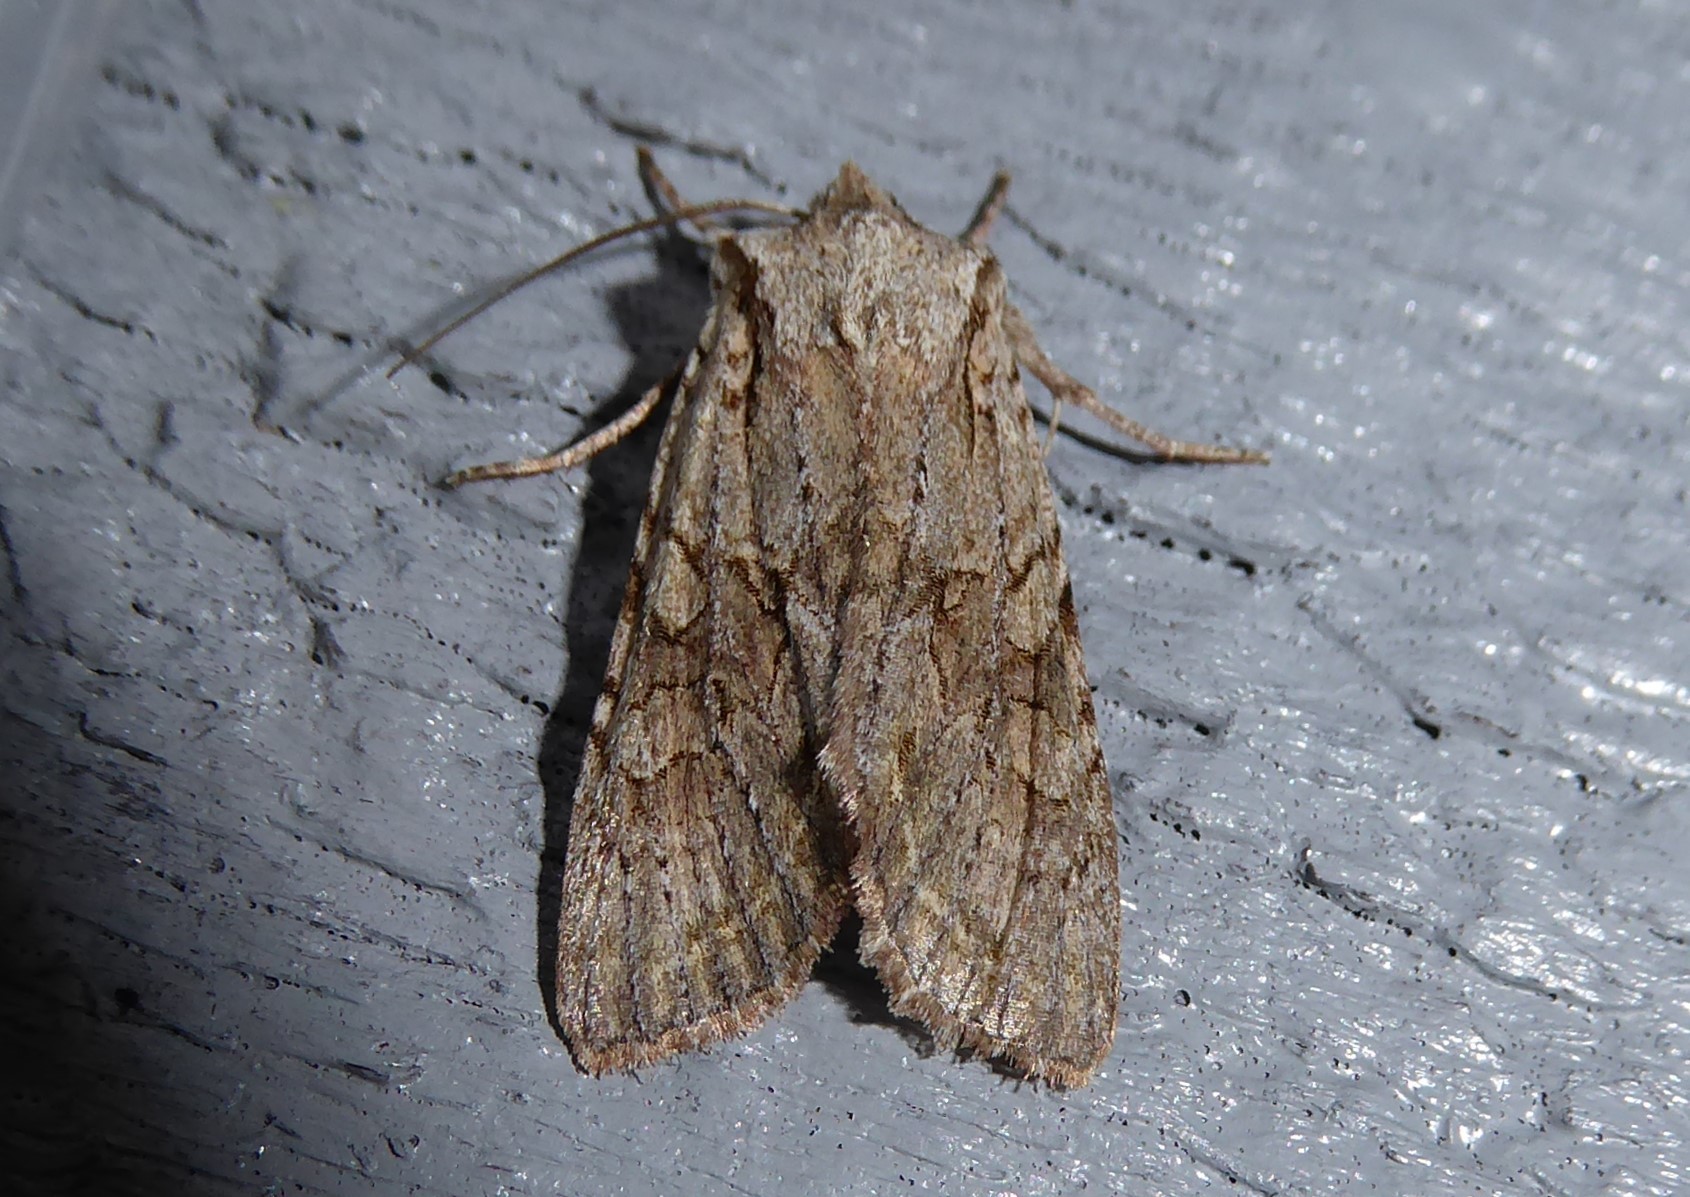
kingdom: Animalia
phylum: Arthropoda
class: Insecta
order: Lepidoptera
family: Noctuidae
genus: Ichneutica
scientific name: Ichneutica mutans
